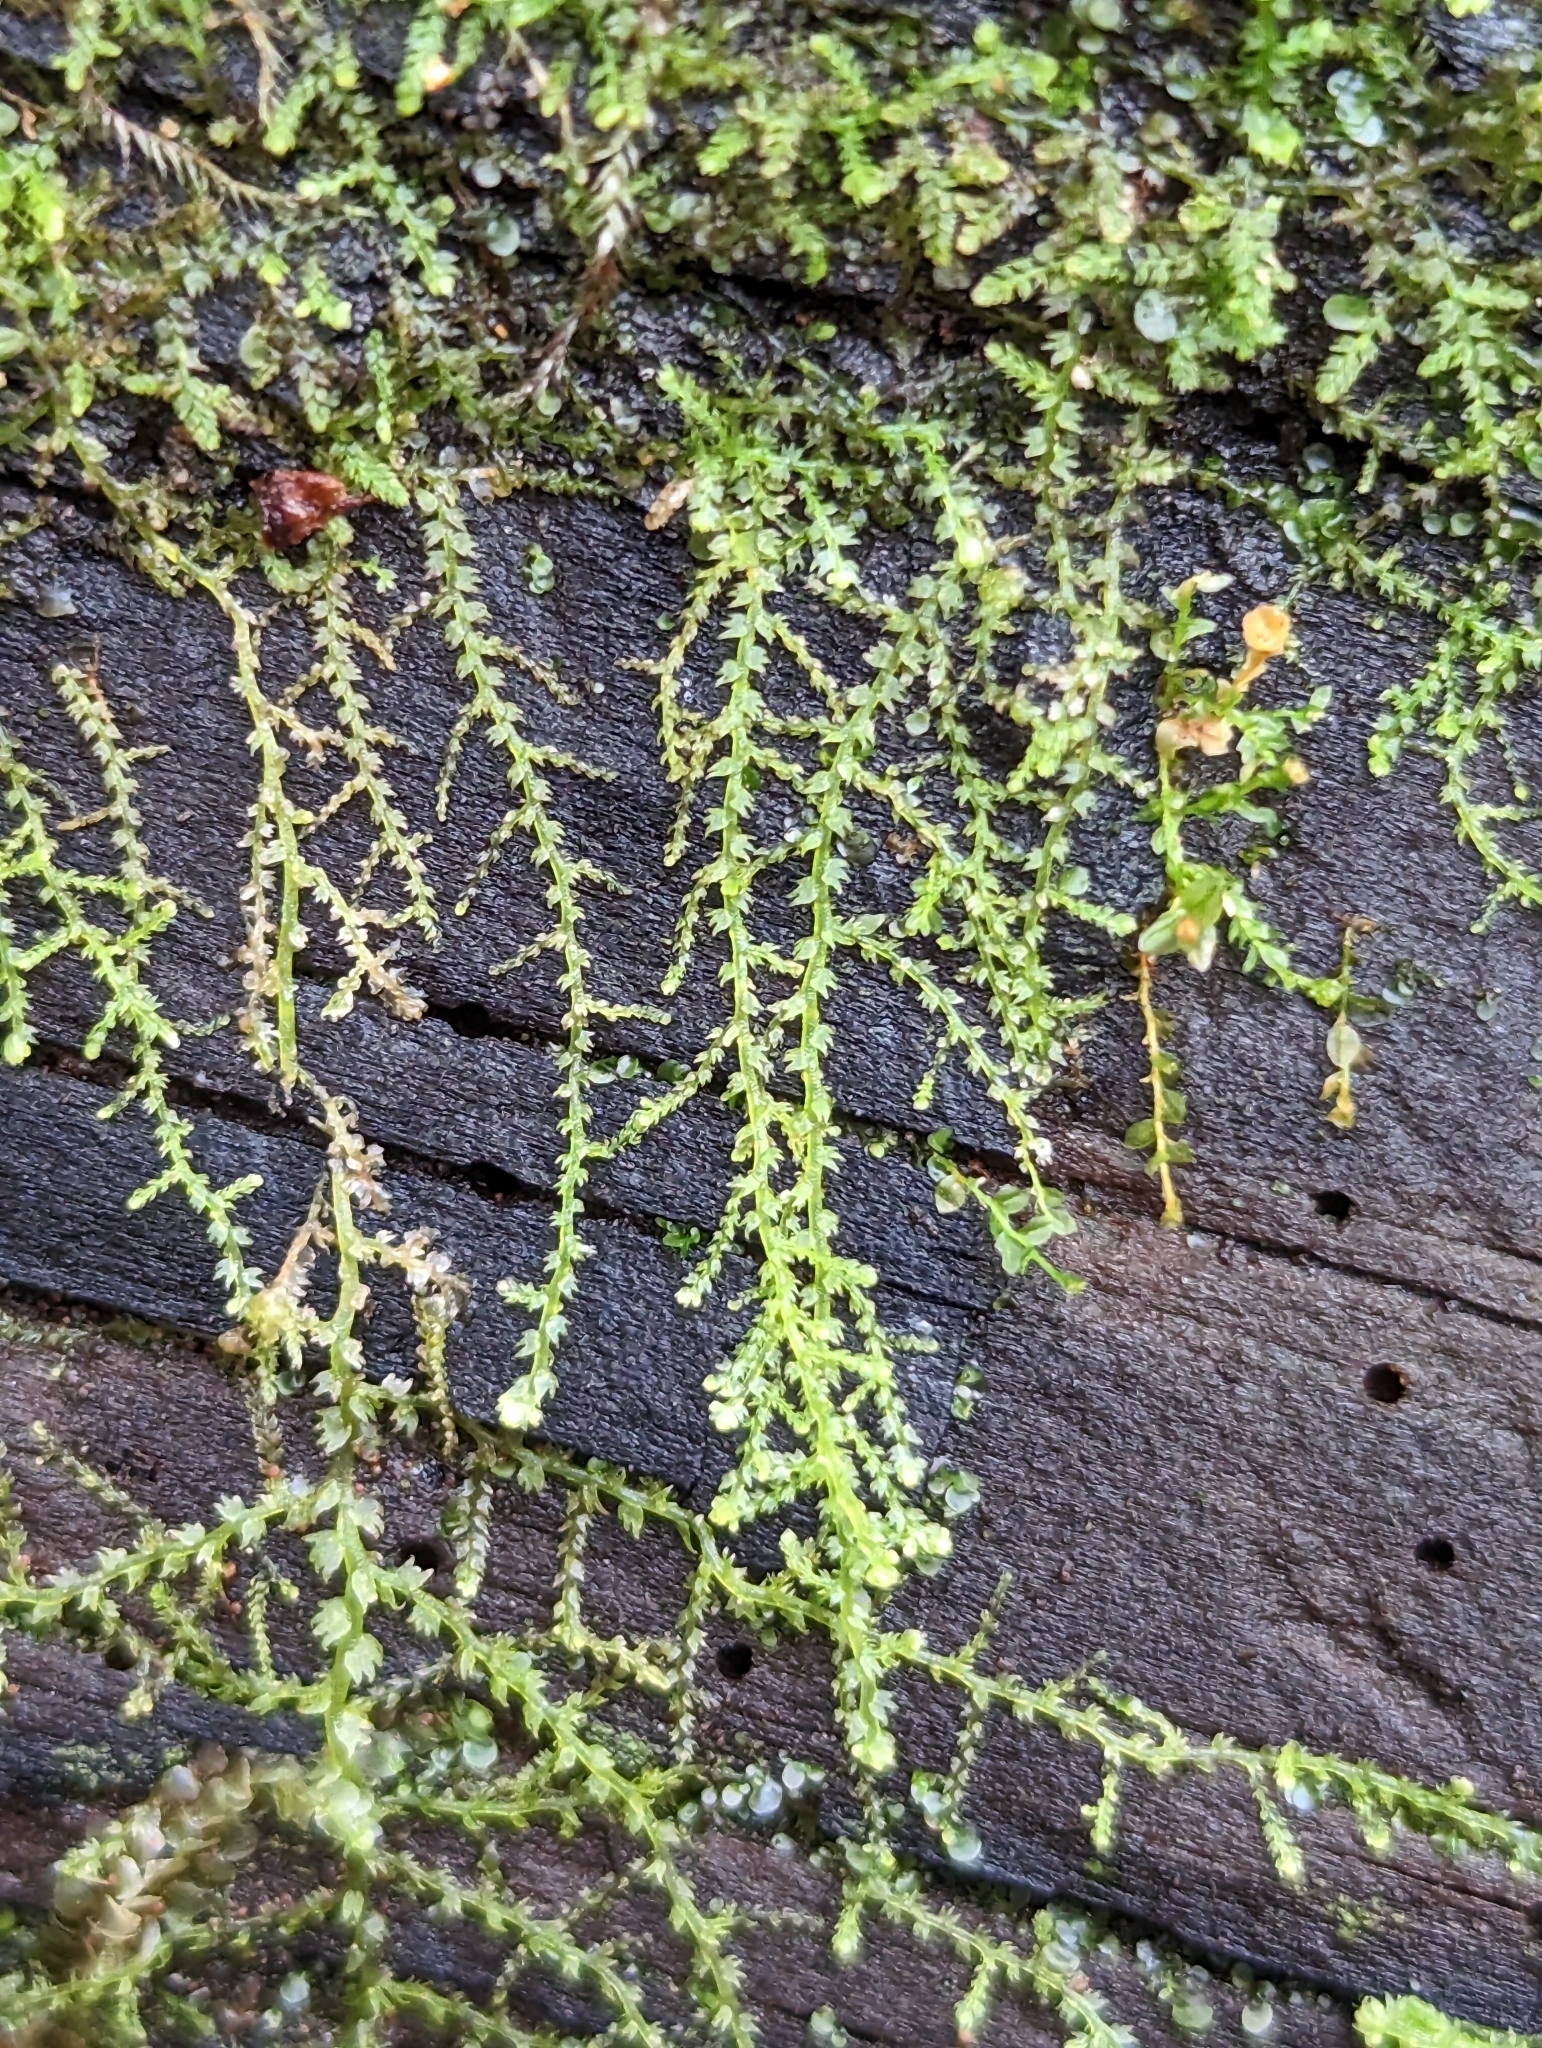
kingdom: Plantae
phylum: Marchantiophyta
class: Jungermanniopsida
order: Jungermanniales
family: Lepidoziaceae
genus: Lepidozia
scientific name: Lepidozia reptans
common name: Creeping fingerwort
